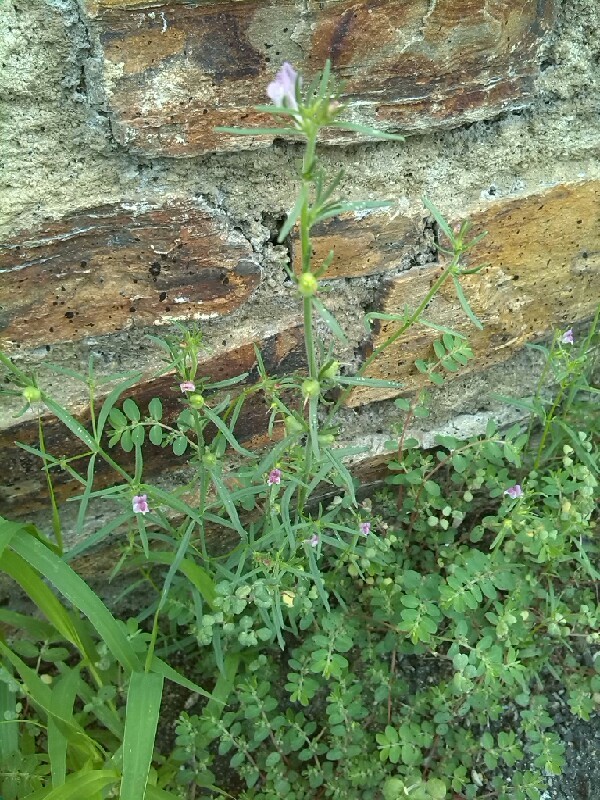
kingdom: Plantae
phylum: Tracheophyta
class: Magnoliopsida
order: Lamiales
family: Plantaginaceae
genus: Misopates
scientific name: Misopates orontium
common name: Weasel's-snout
